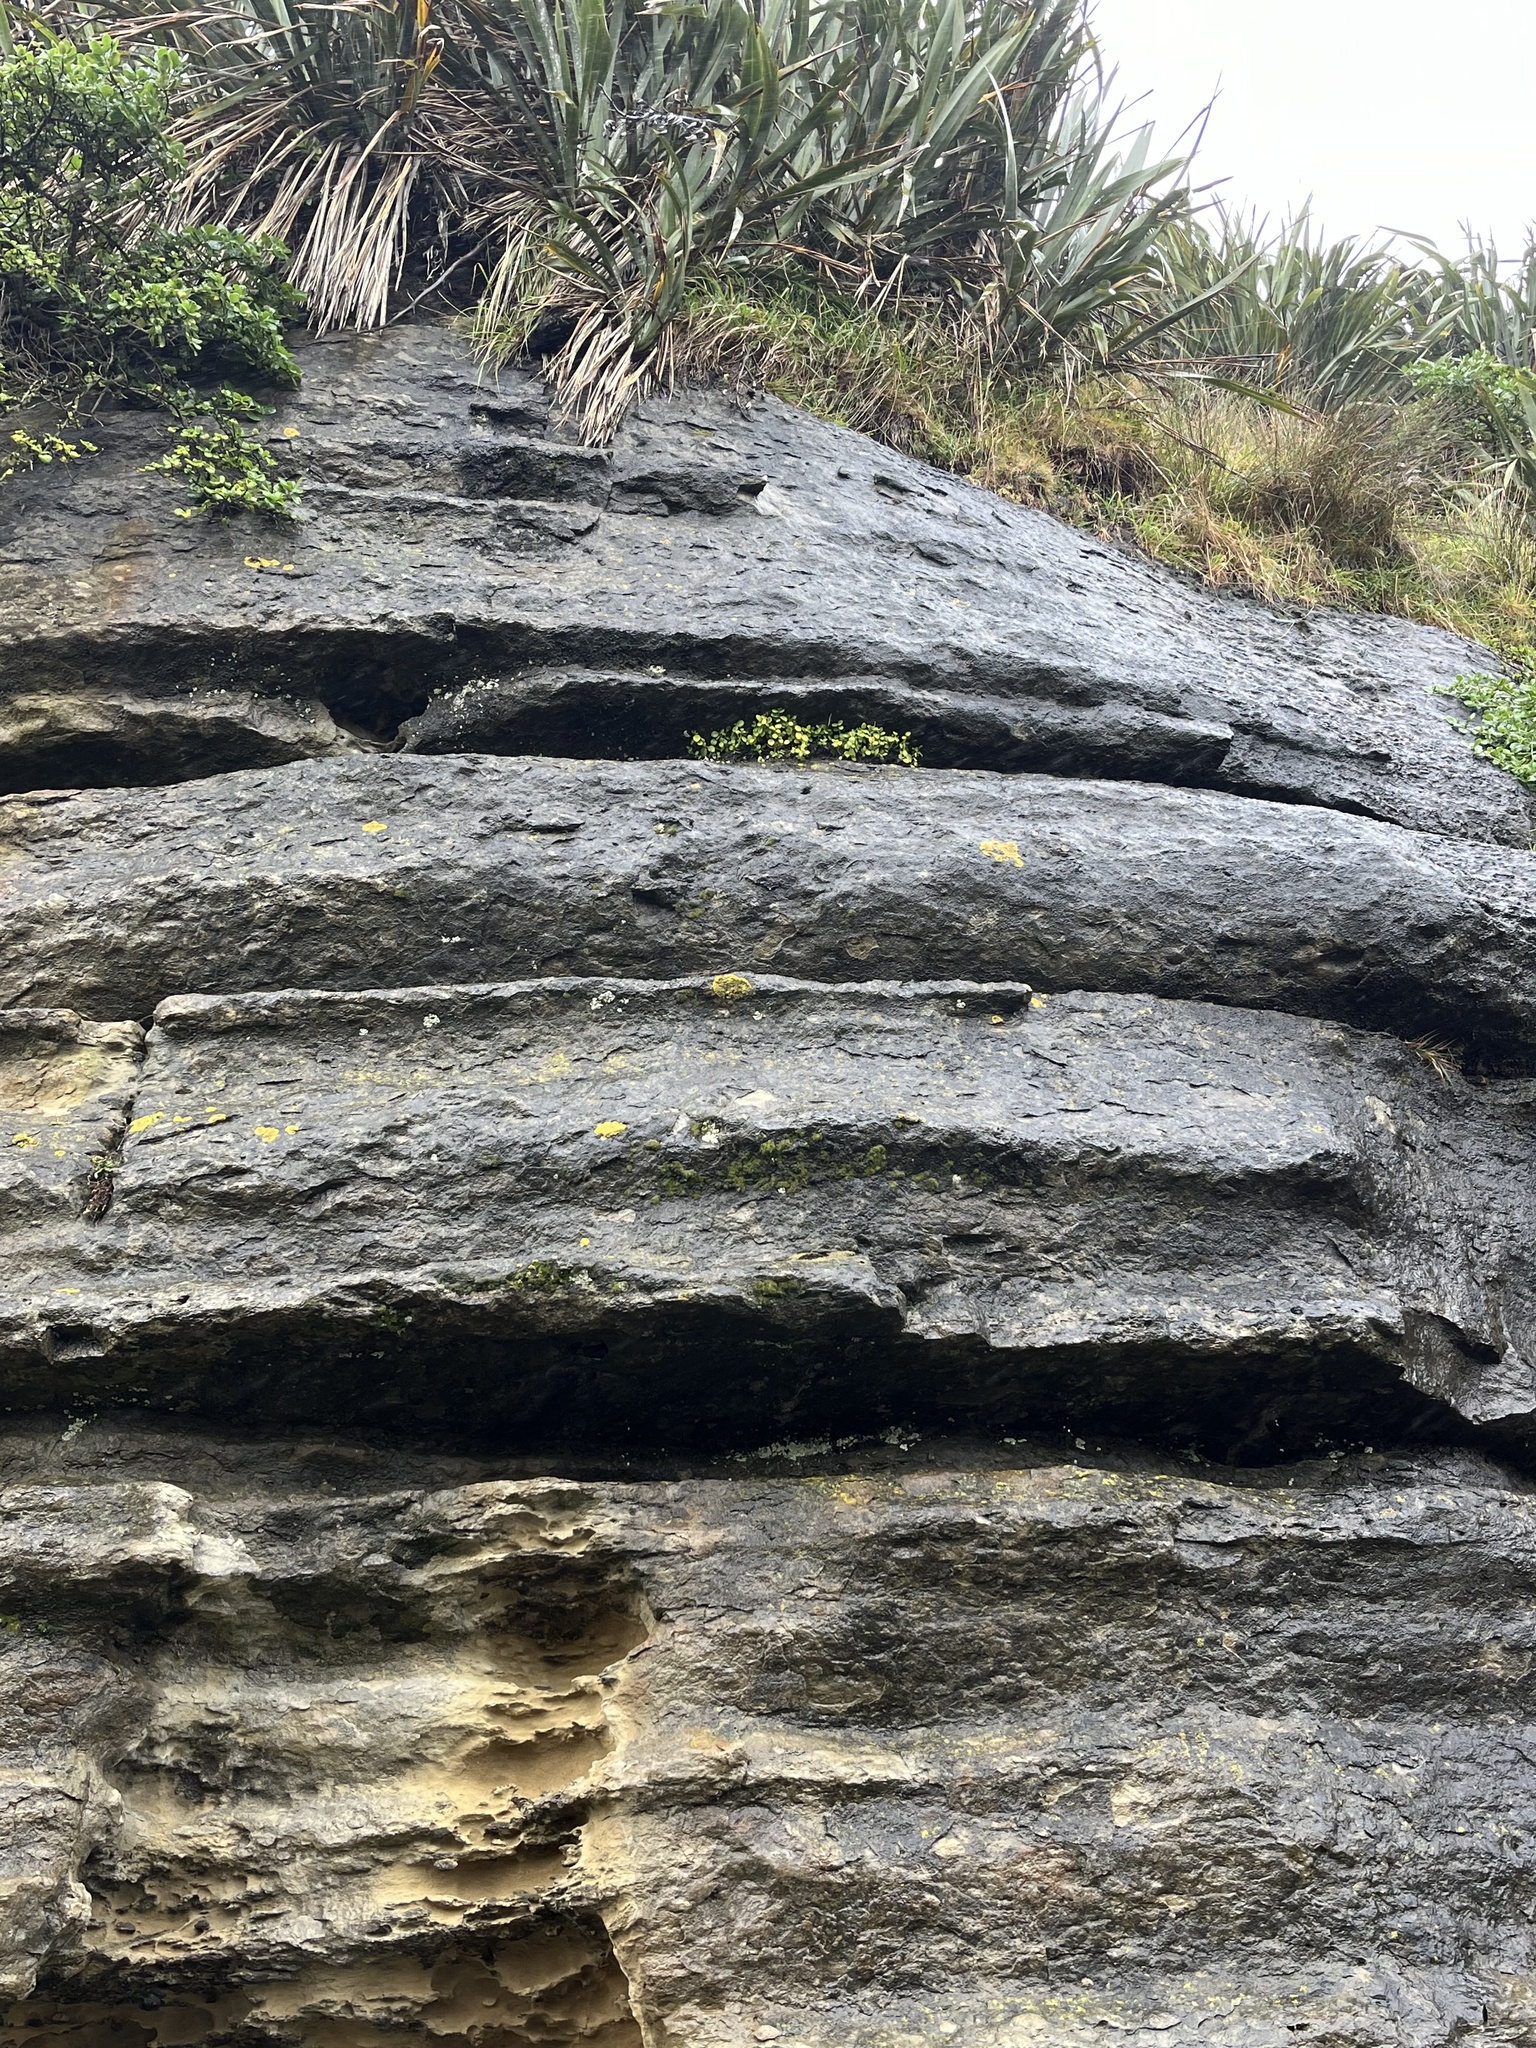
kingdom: Plantae
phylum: Tracheophyta
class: Magnoliopsida
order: Piperales
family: Piperaceae
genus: Peperomia
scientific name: Peperomia urvilleana
